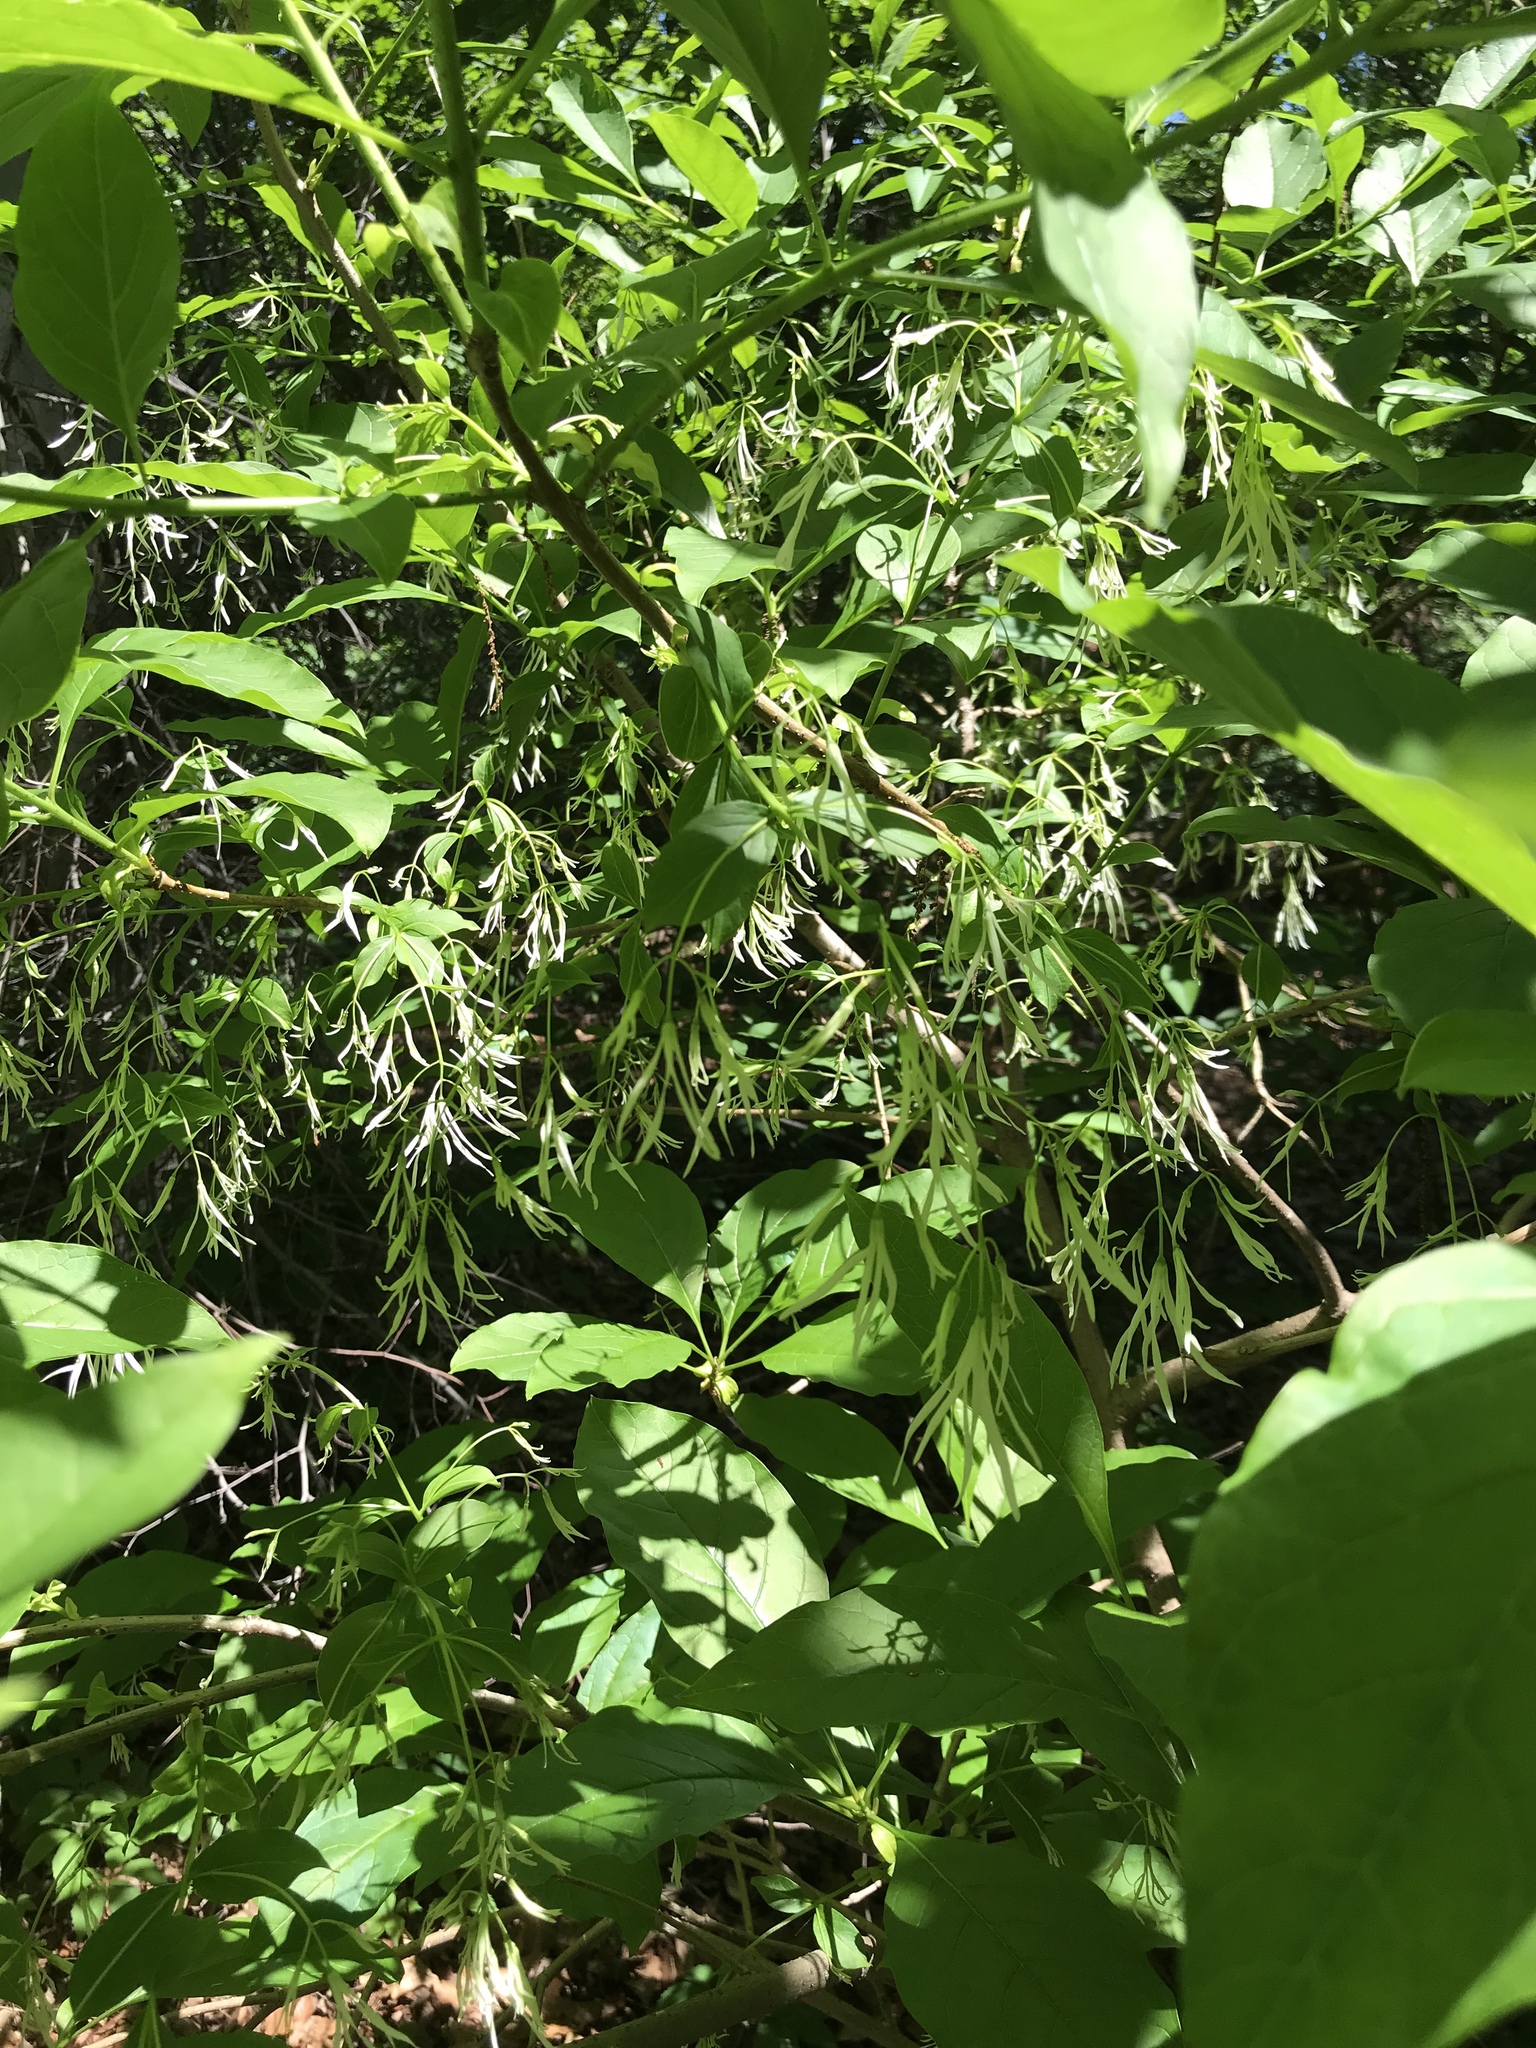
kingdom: Plantae
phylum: Tracheophyta
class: Magnoliopsida
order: Lamiales
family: Oleaceae
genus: Chionanthus
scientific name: Chionanthus virginicus
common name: American fringetree
